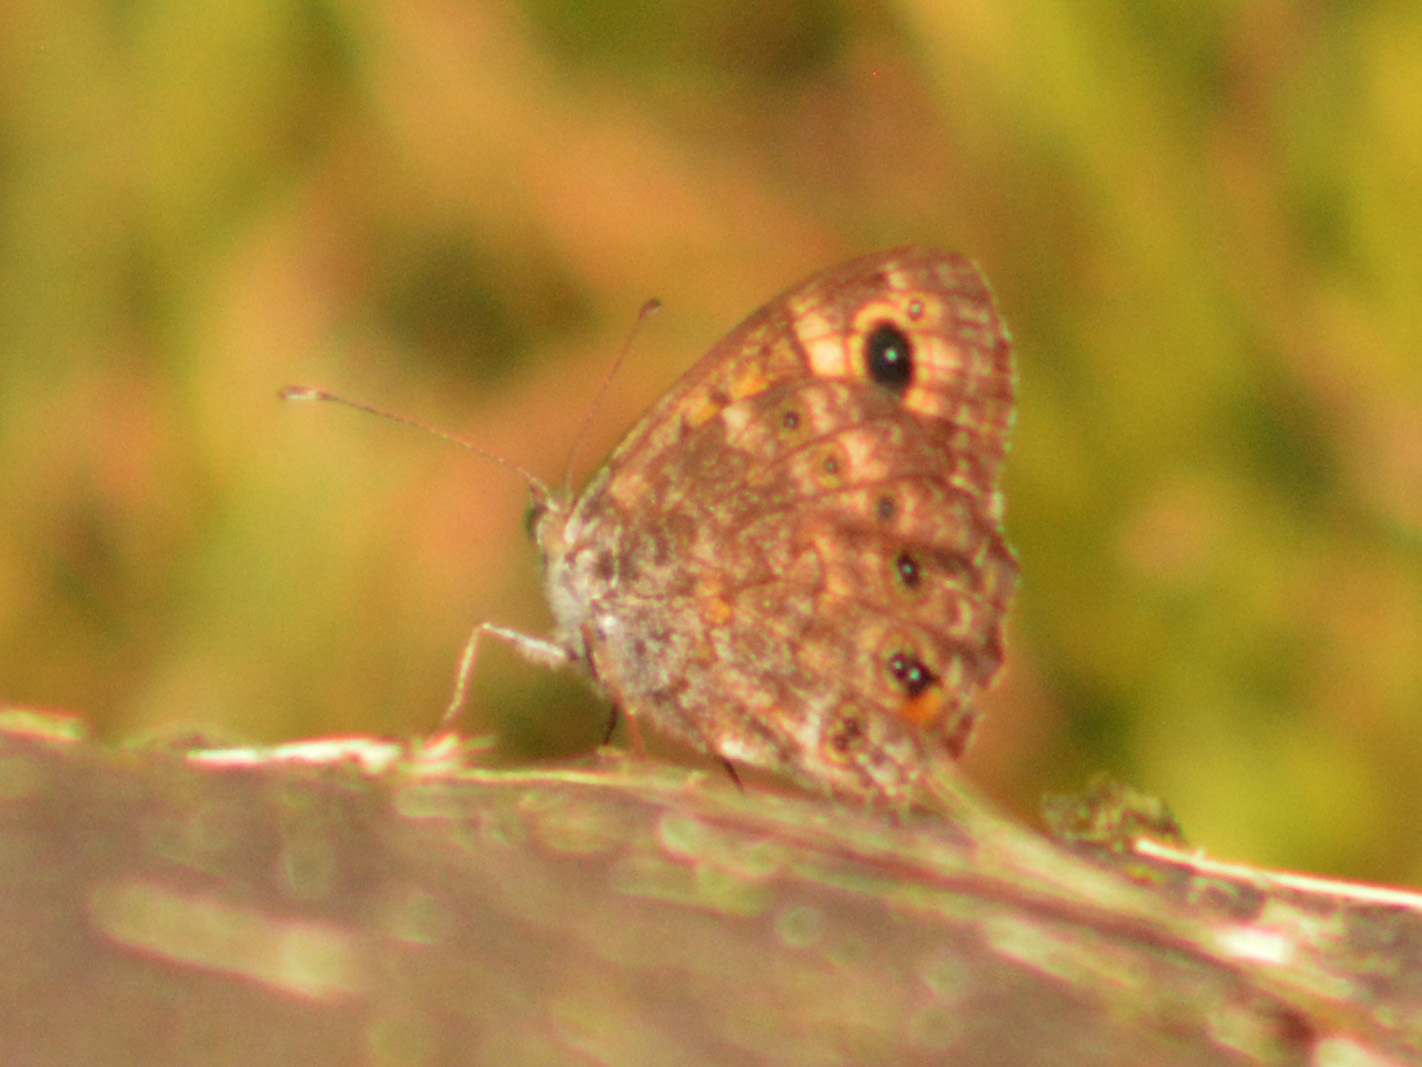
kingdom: Animalia
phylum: Arthropoda
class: Insecta
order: Lepidoptera
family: Nymphalidae
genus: Pararge
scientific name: Pararge Lasiommata megera
